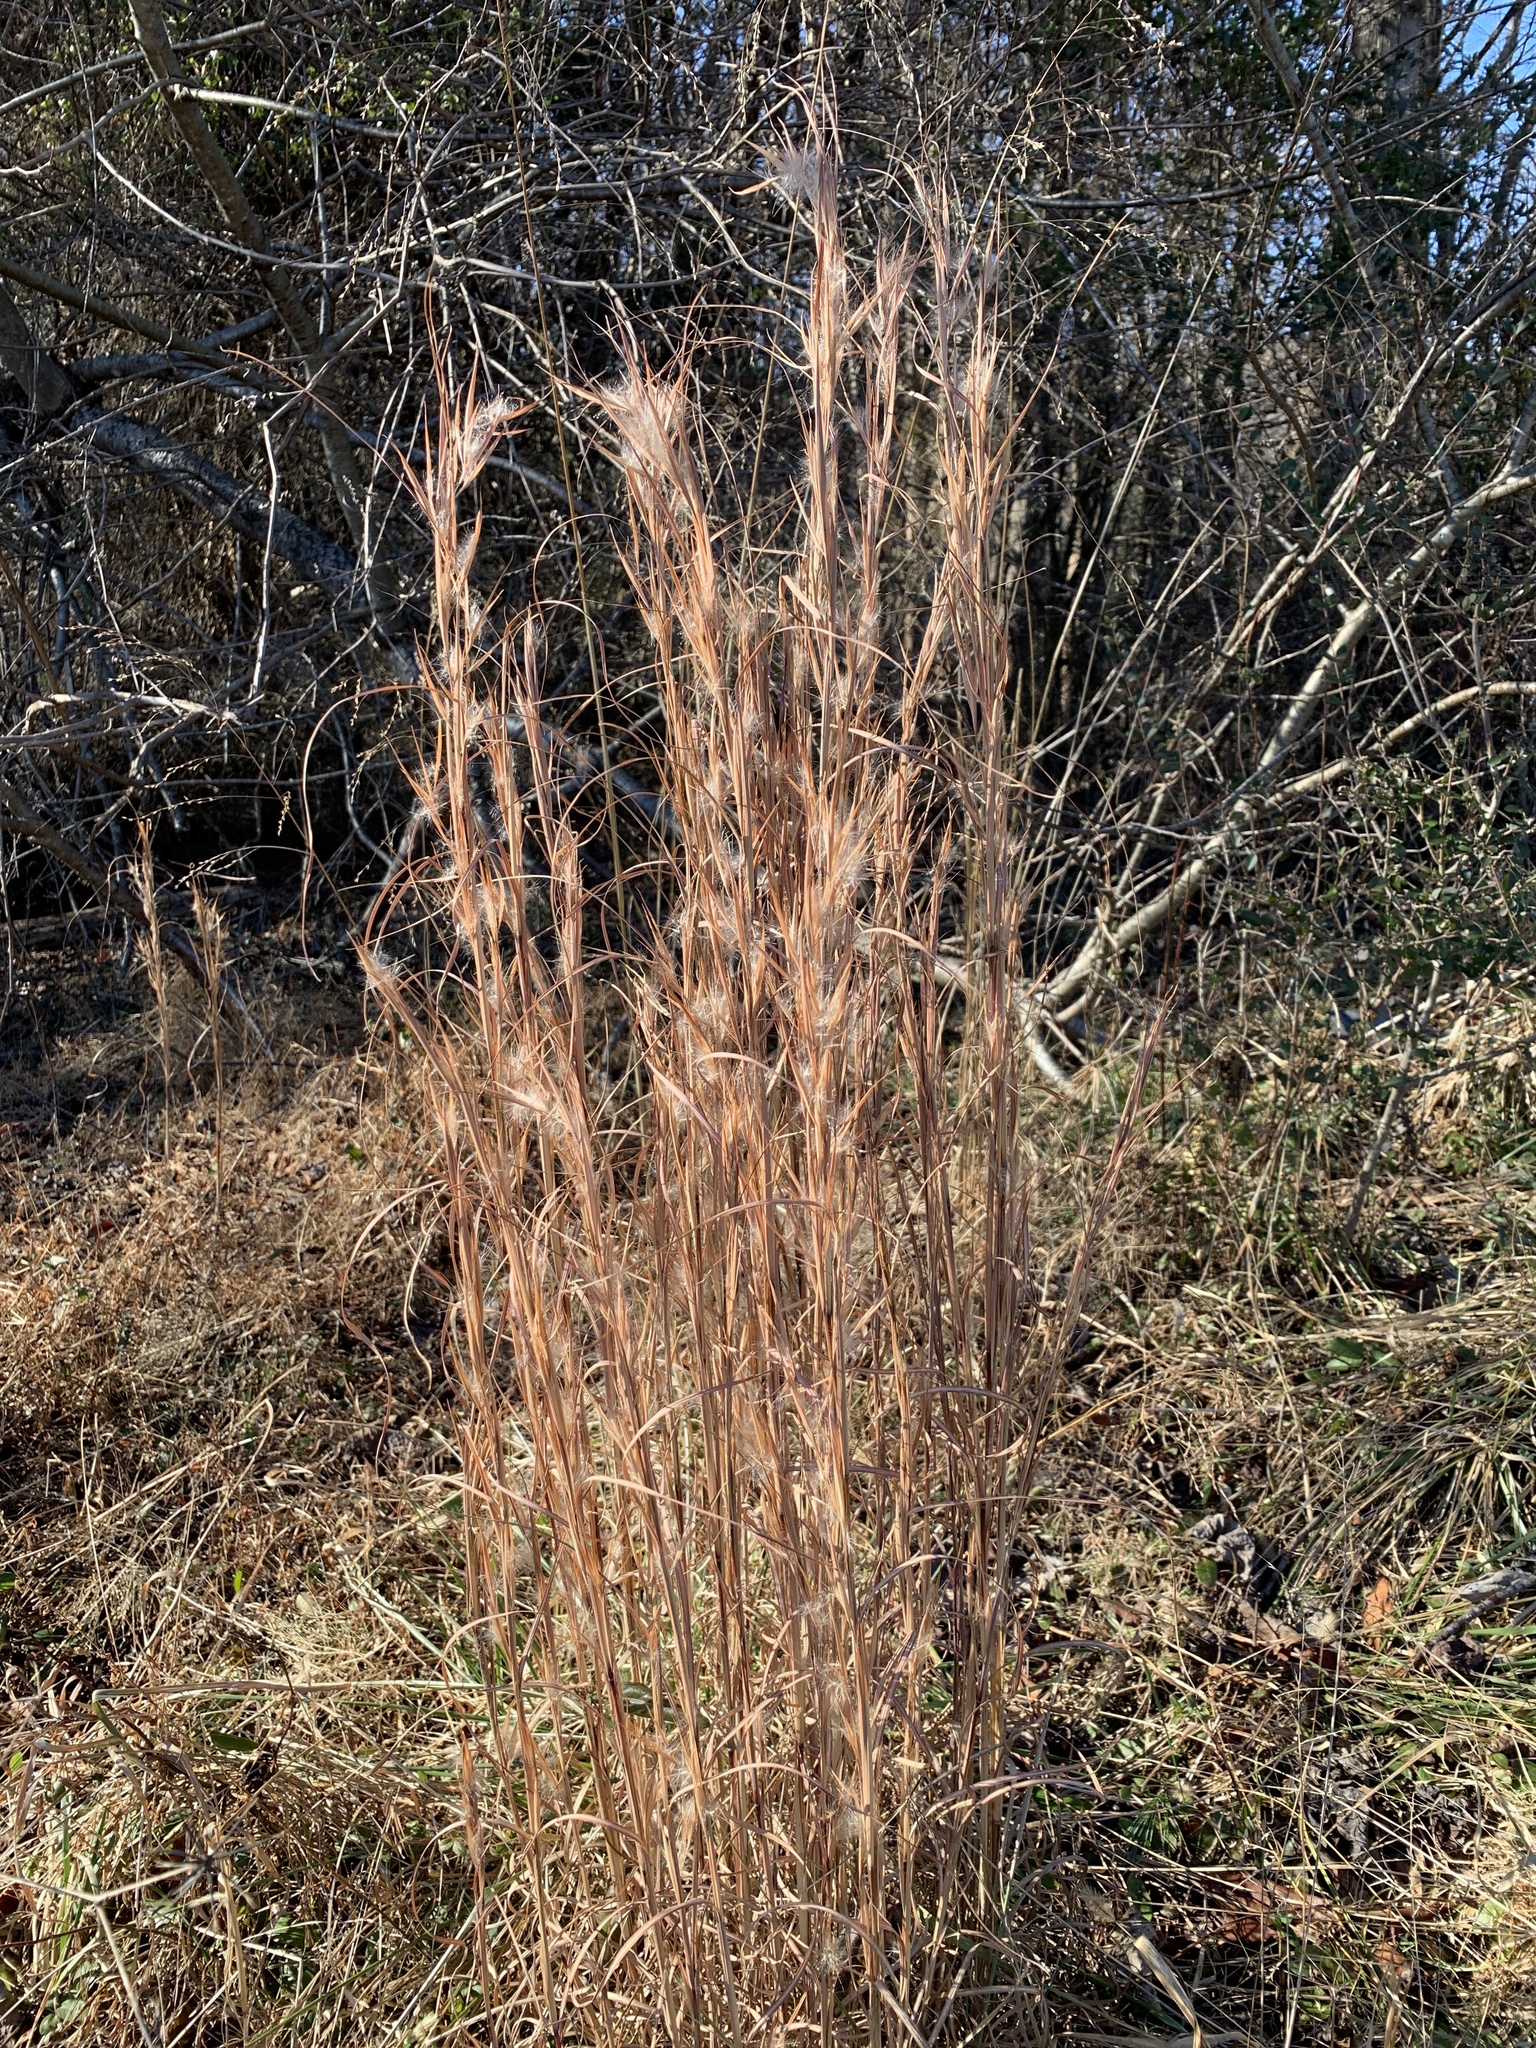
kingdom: Plantae
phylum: Tracheophyta
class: Liliopsida
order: Poales
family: Poaceae
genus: Andropogon
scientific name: Andropogon virginicus
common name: Broomsedge bluestem
